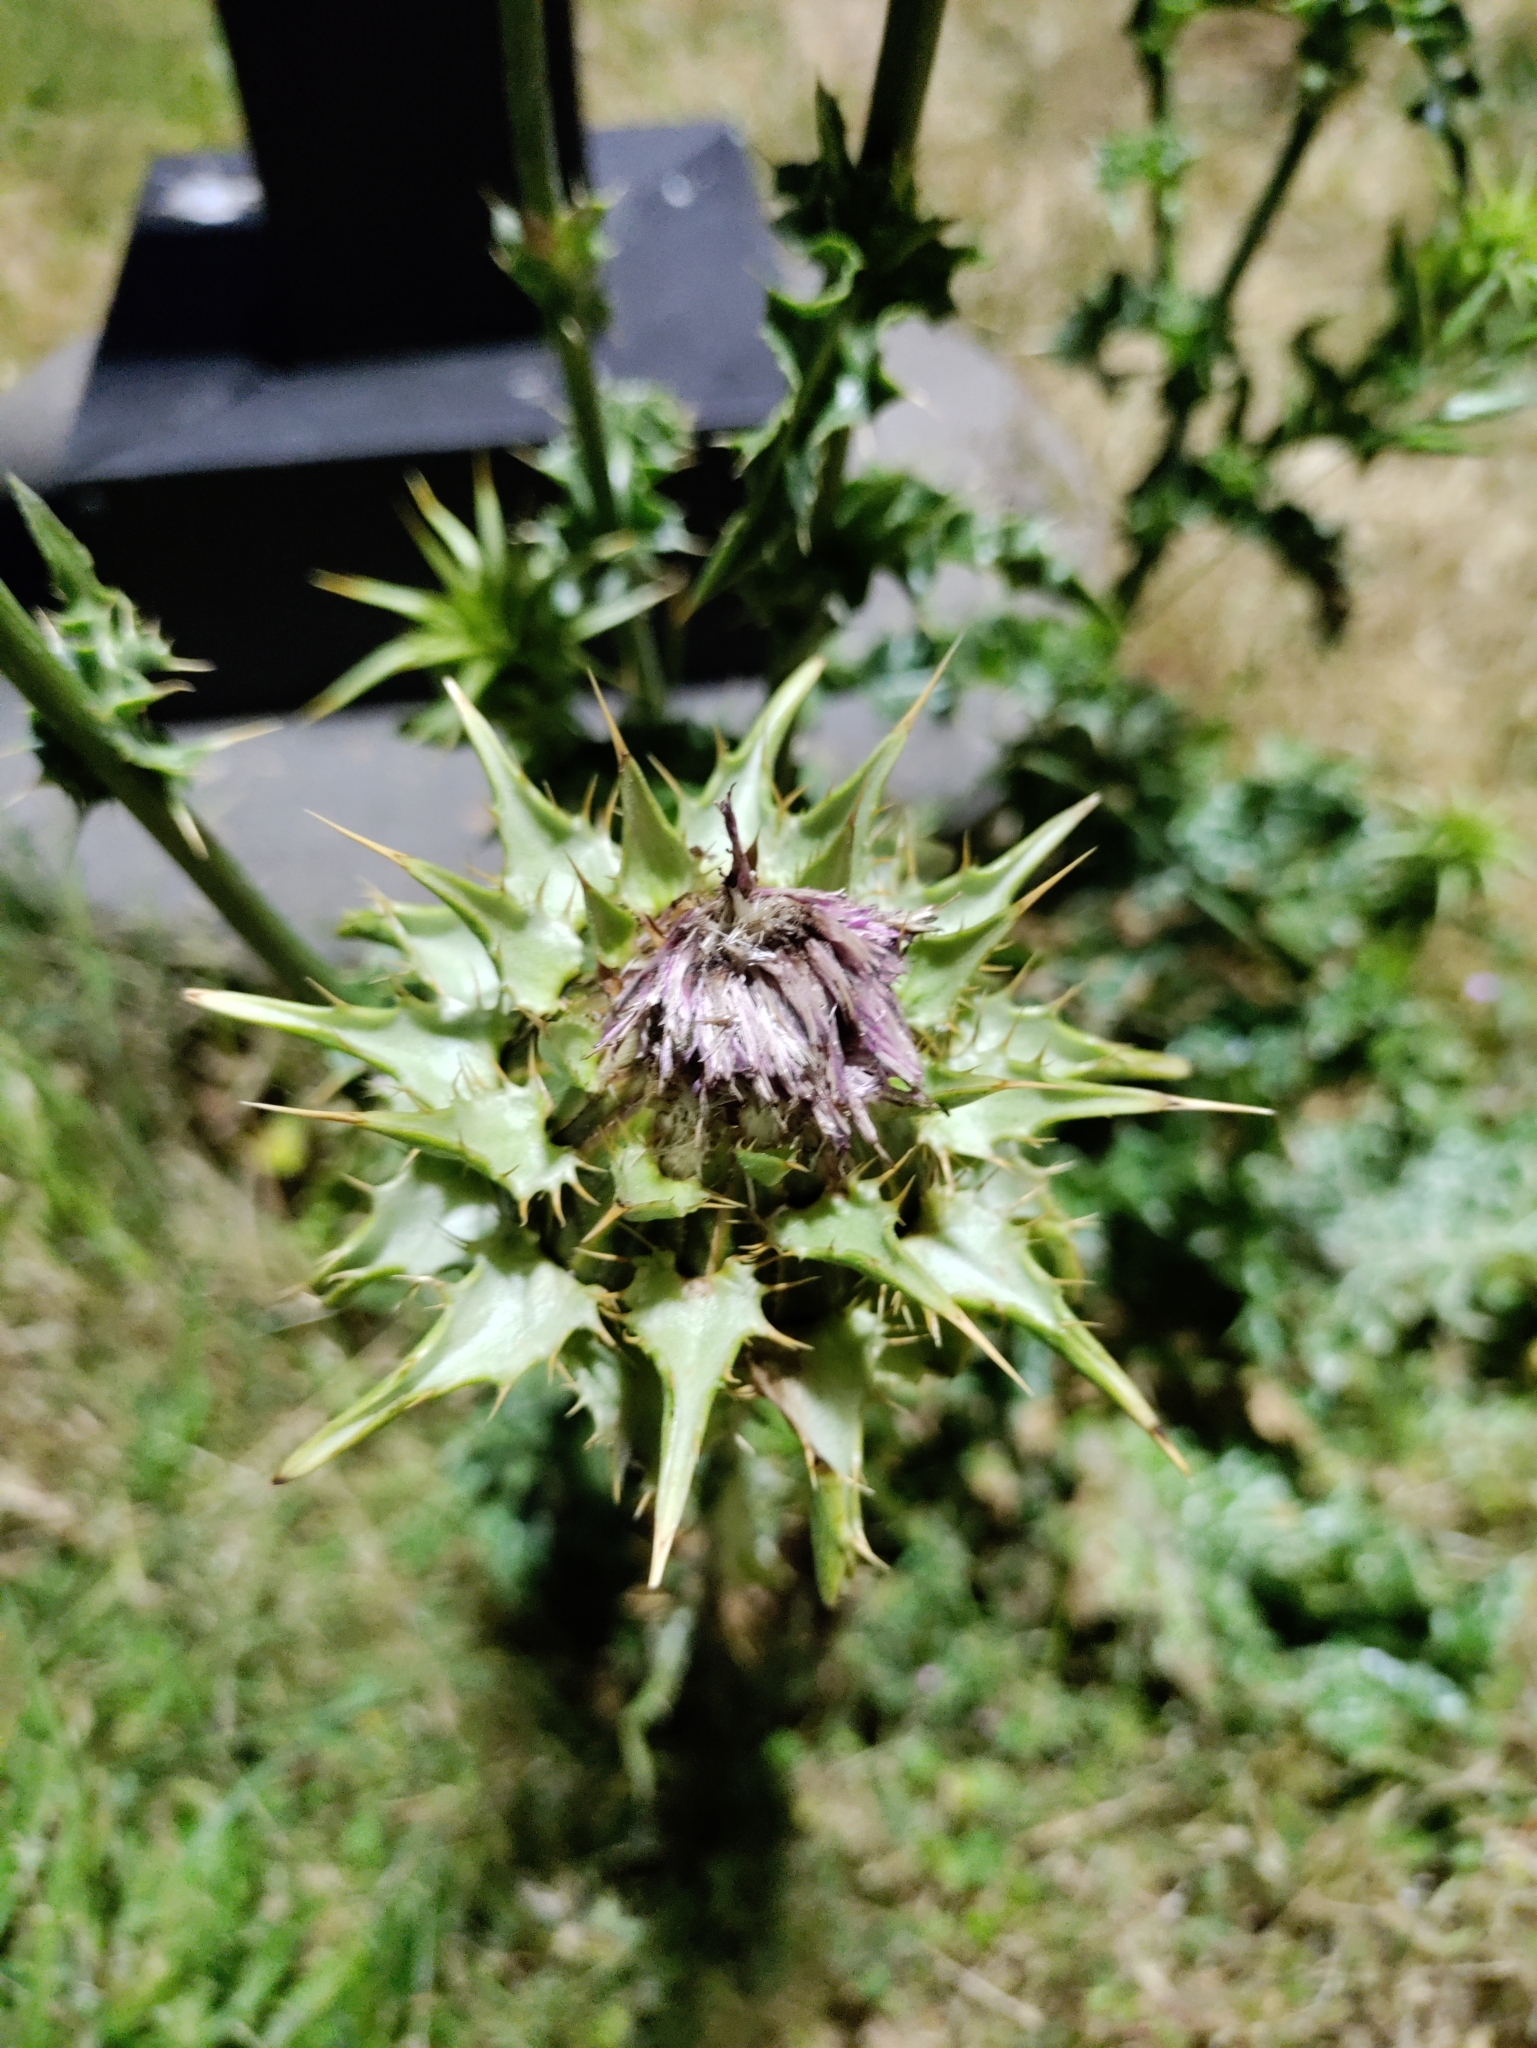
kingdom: Plantae
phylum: Tracheophyta
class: Magnoliopsida
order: Asterales
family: Asteraceae
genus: Silybum
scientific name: Silybum marianum
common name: Milk thistle
